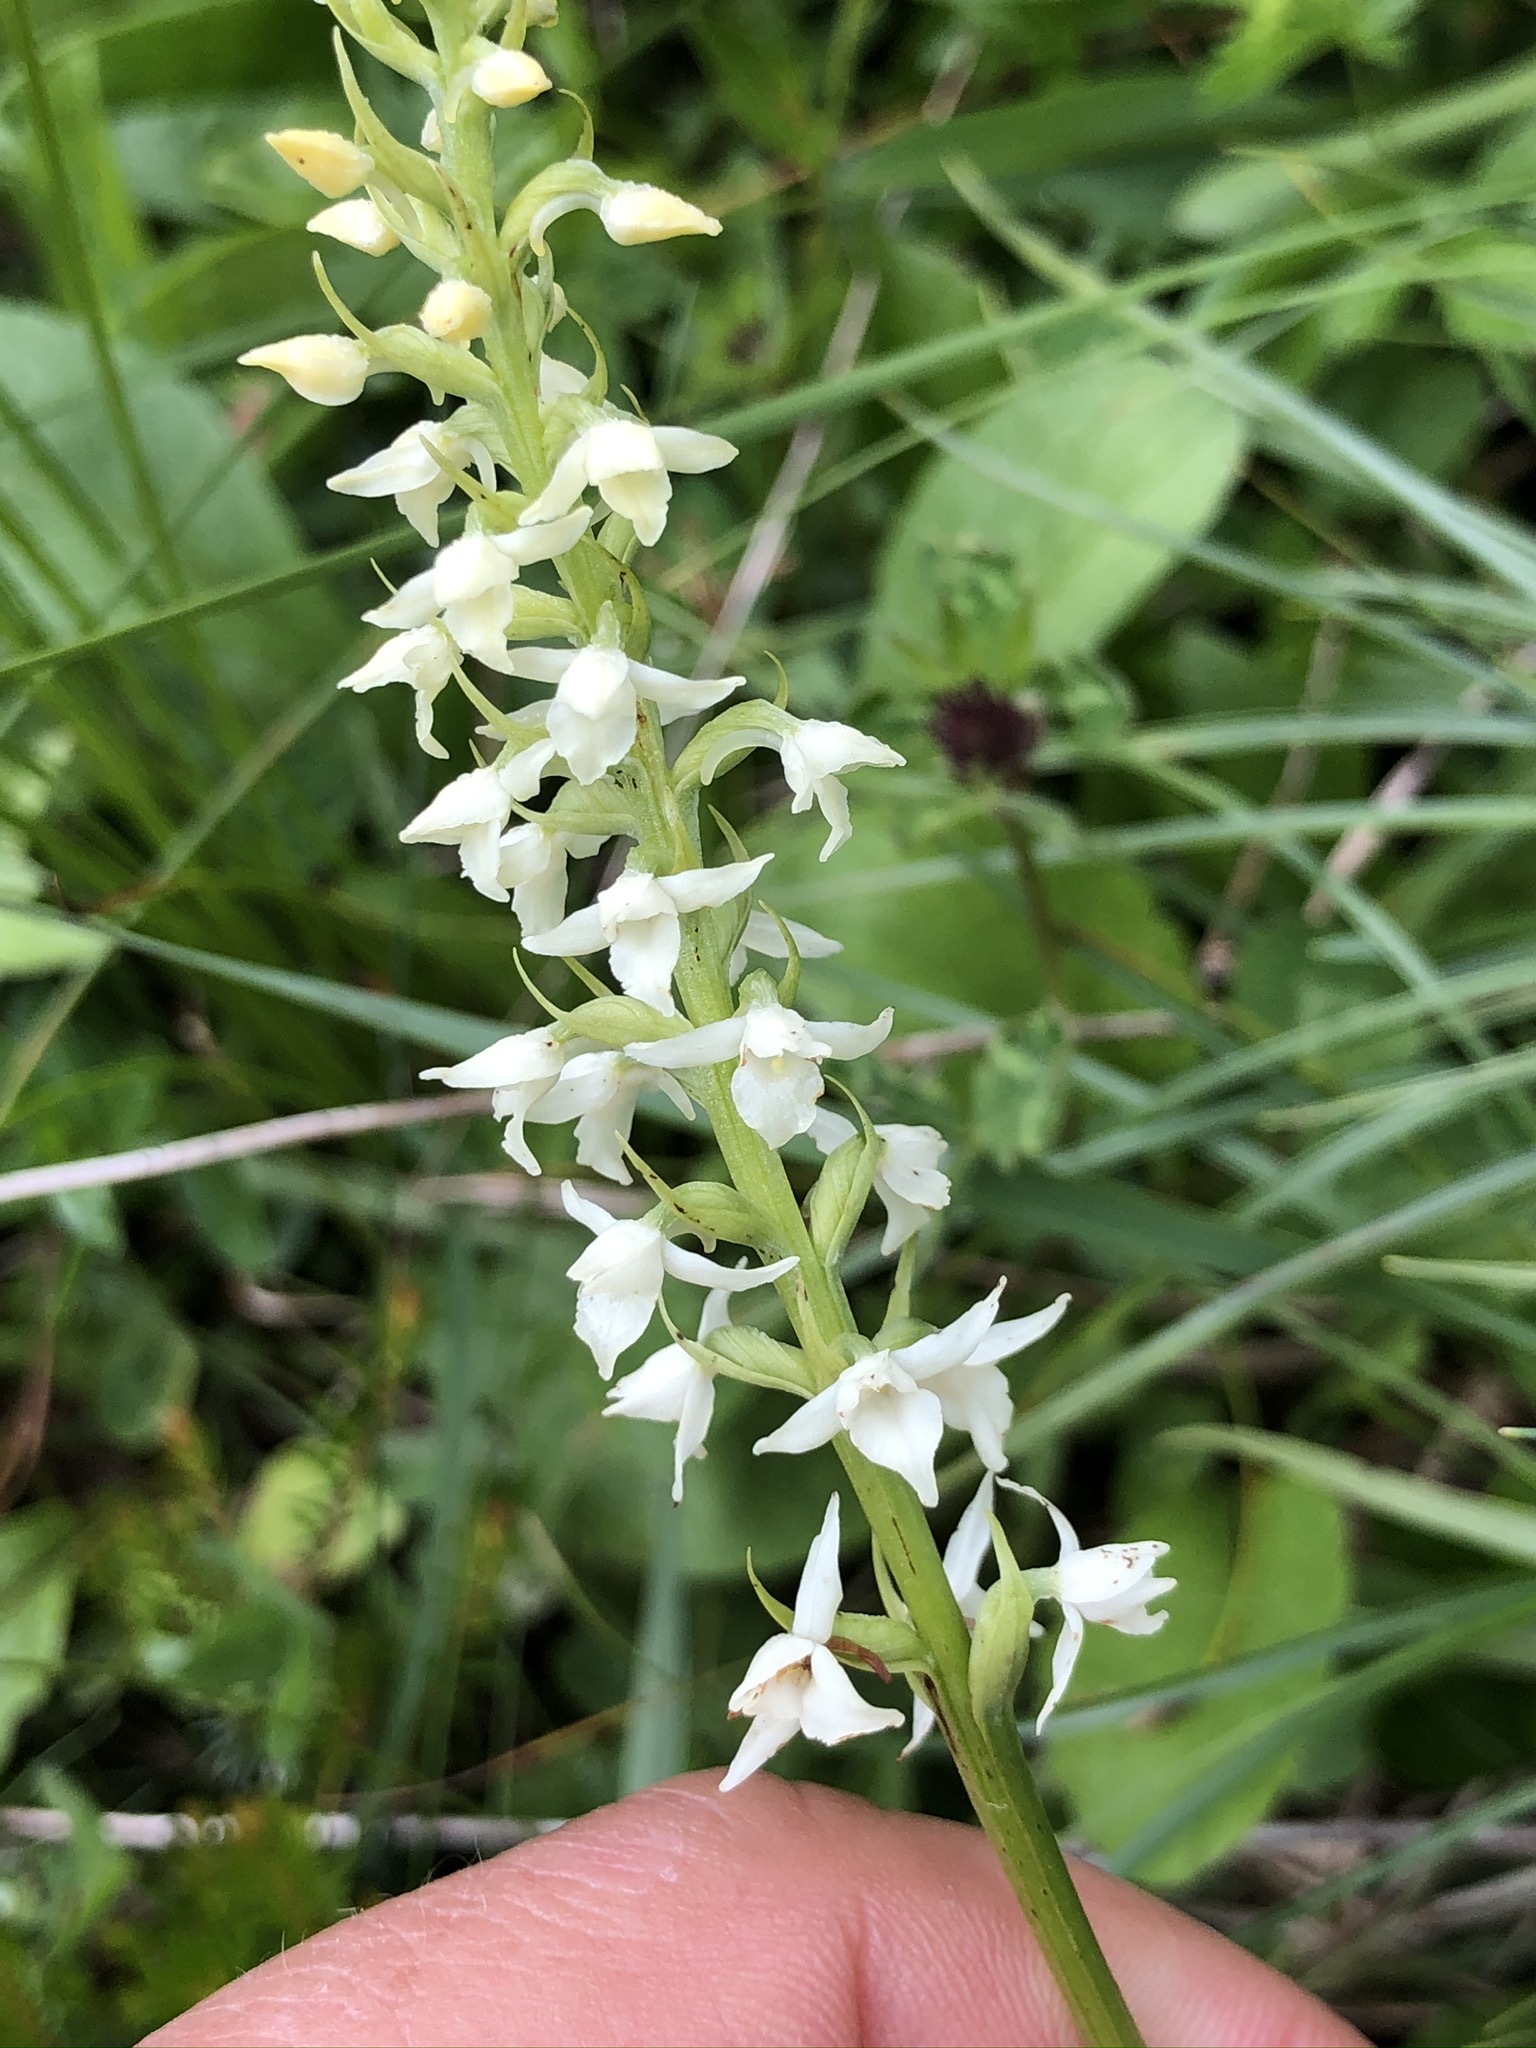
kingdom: Plantae
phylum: Tracheophyta
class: Liliopsida
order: Asparagales
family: Orchidaceae
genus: Gymnadenia
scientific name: Gymnadenia odoratissima
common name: Scented gymnadenia
